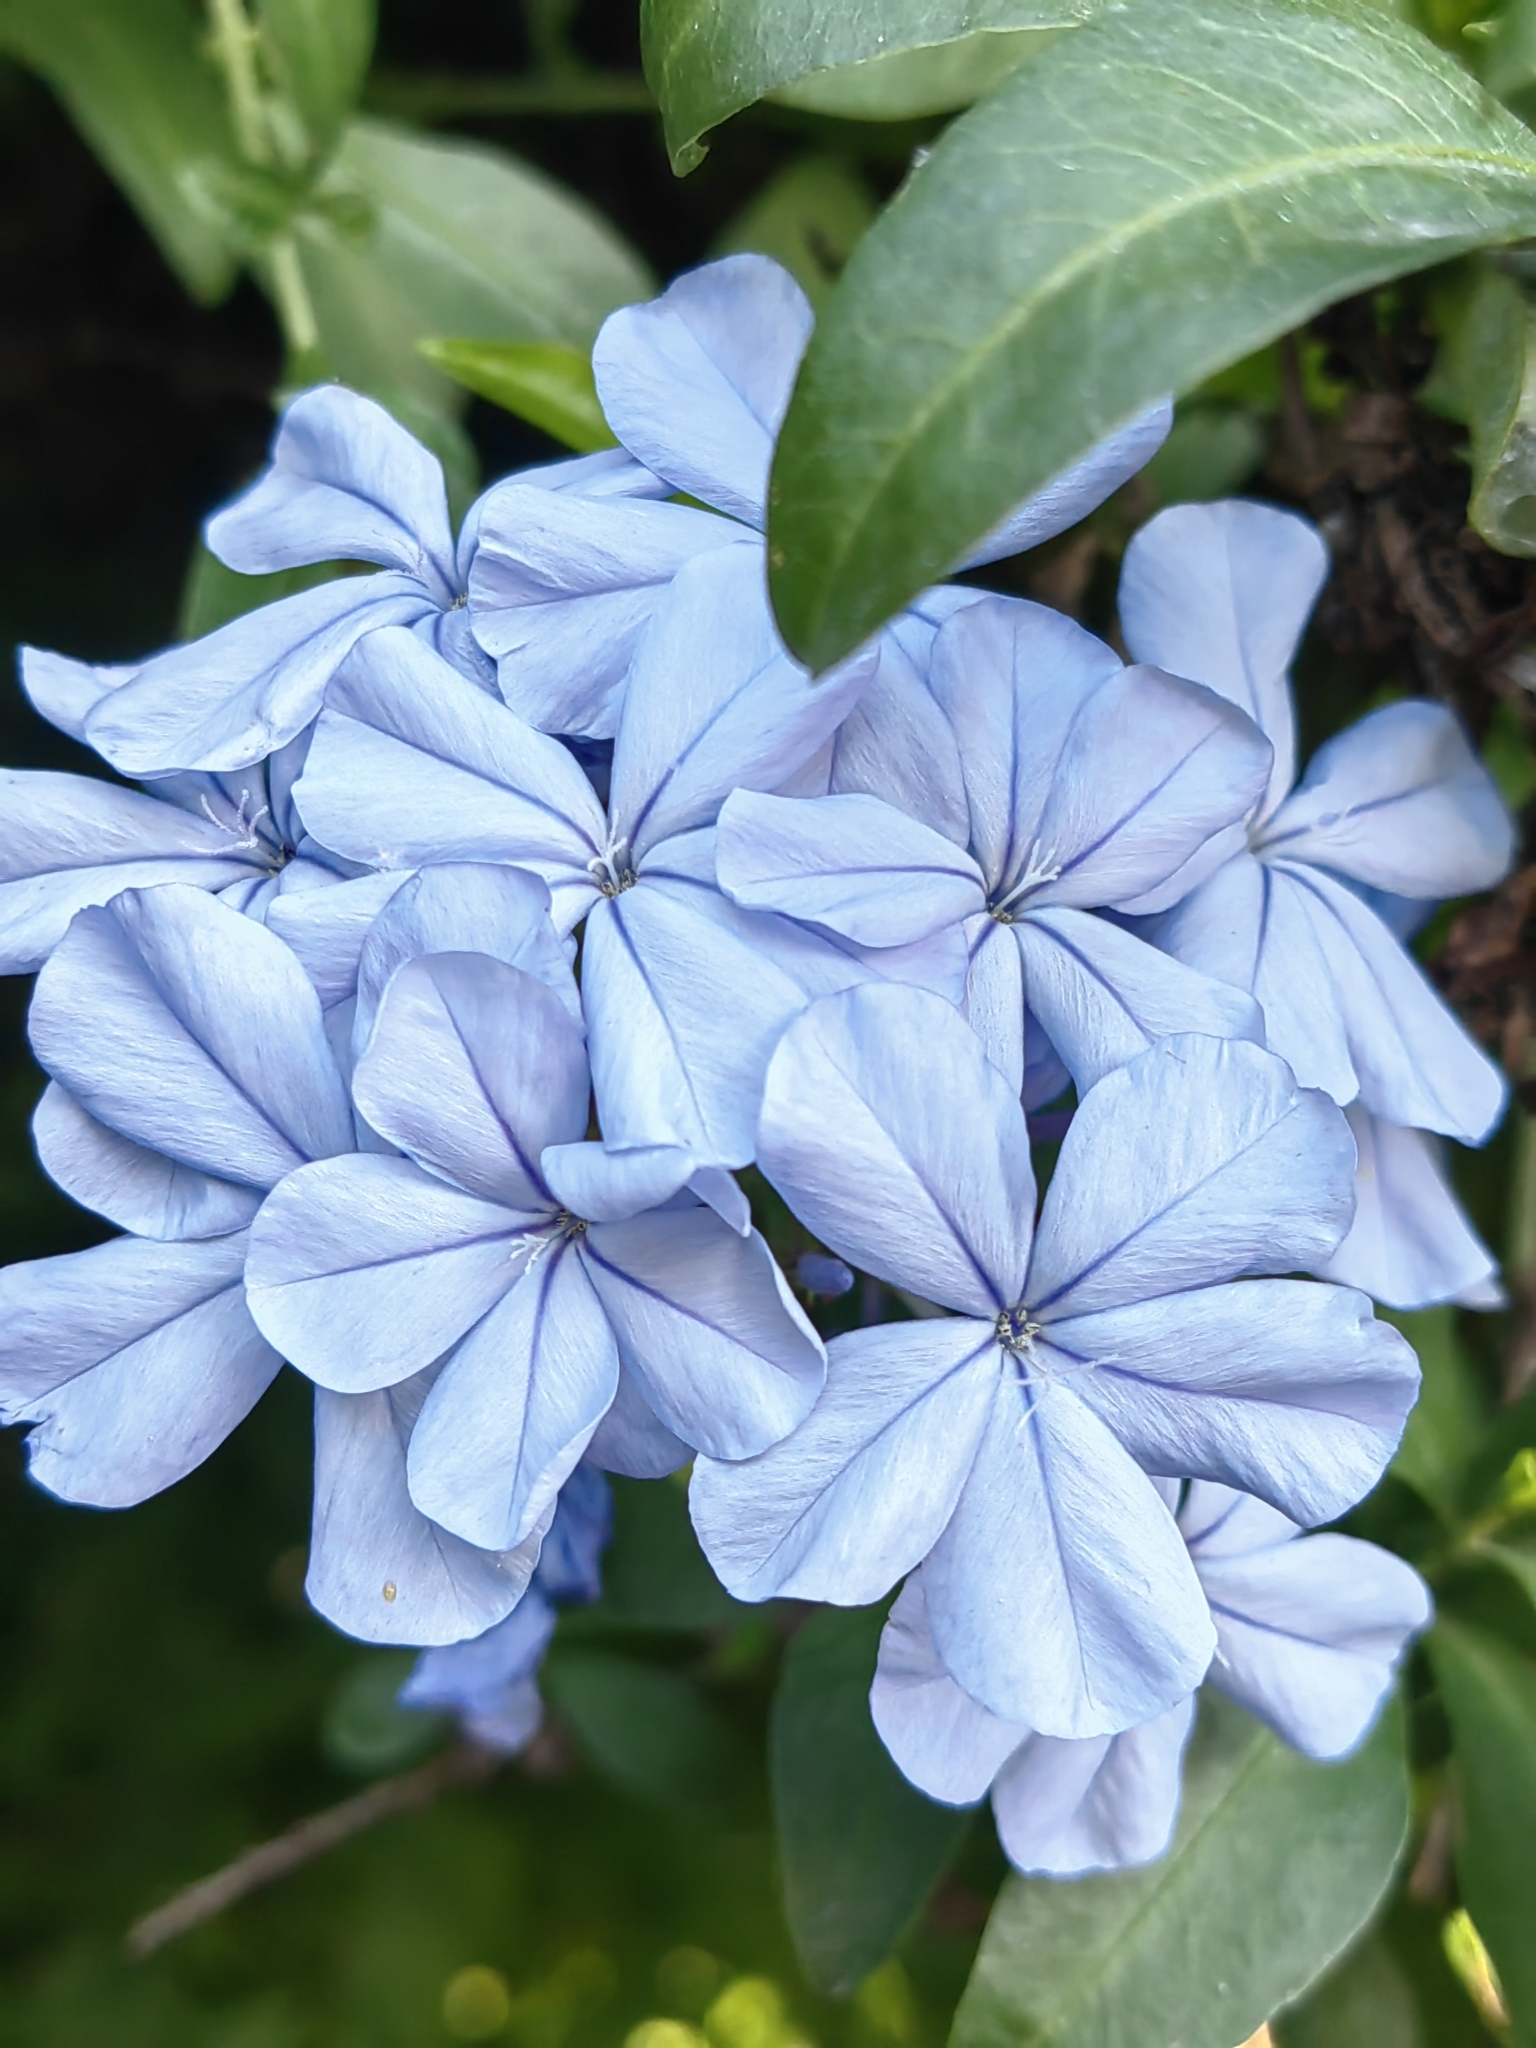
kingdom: Plantae
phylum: Tracheophyta
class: Magnoliopsida
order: Caryophyllales
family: Plumbaginaceae
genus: Plumbago
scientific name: Plumbago auriculata
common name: Cape leadwort
